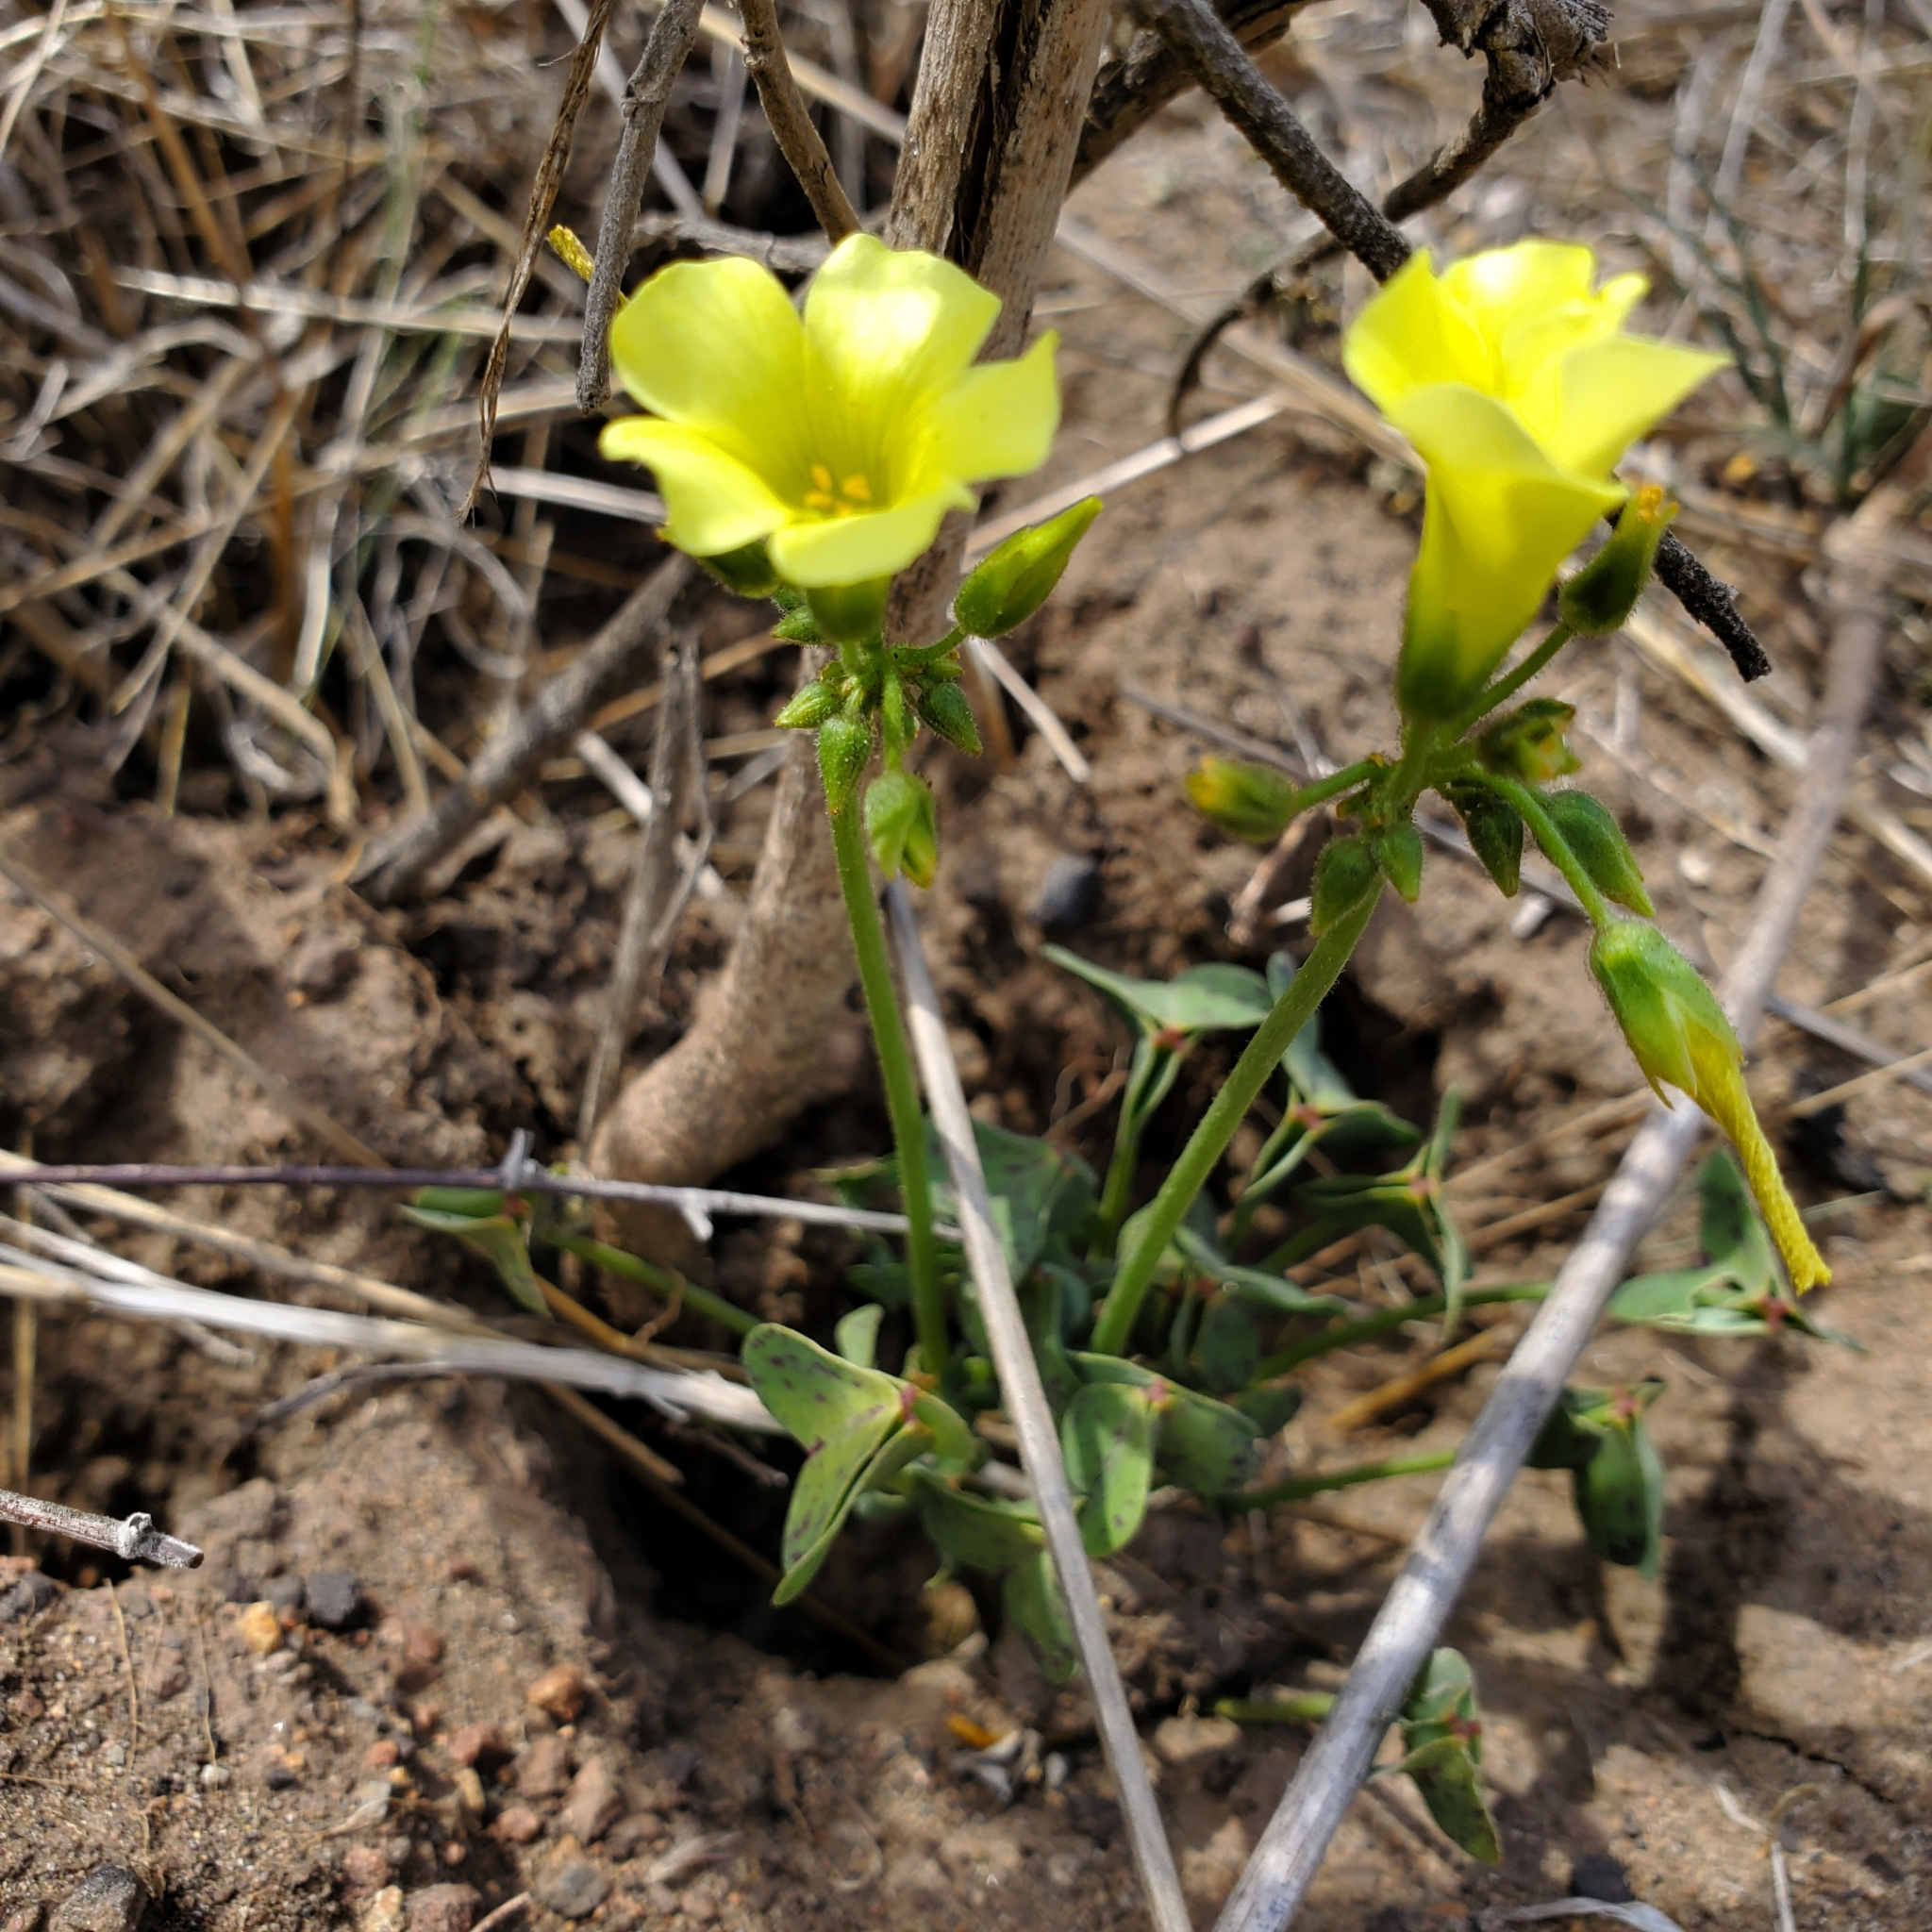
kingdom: Plantae
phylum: Tracheophyta
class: Magnoliopsida
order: Oxalidales
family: Oxalidaceae
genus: Oxalis
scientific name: Oxalis pes-caprae
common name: Bermuda-buttercup
